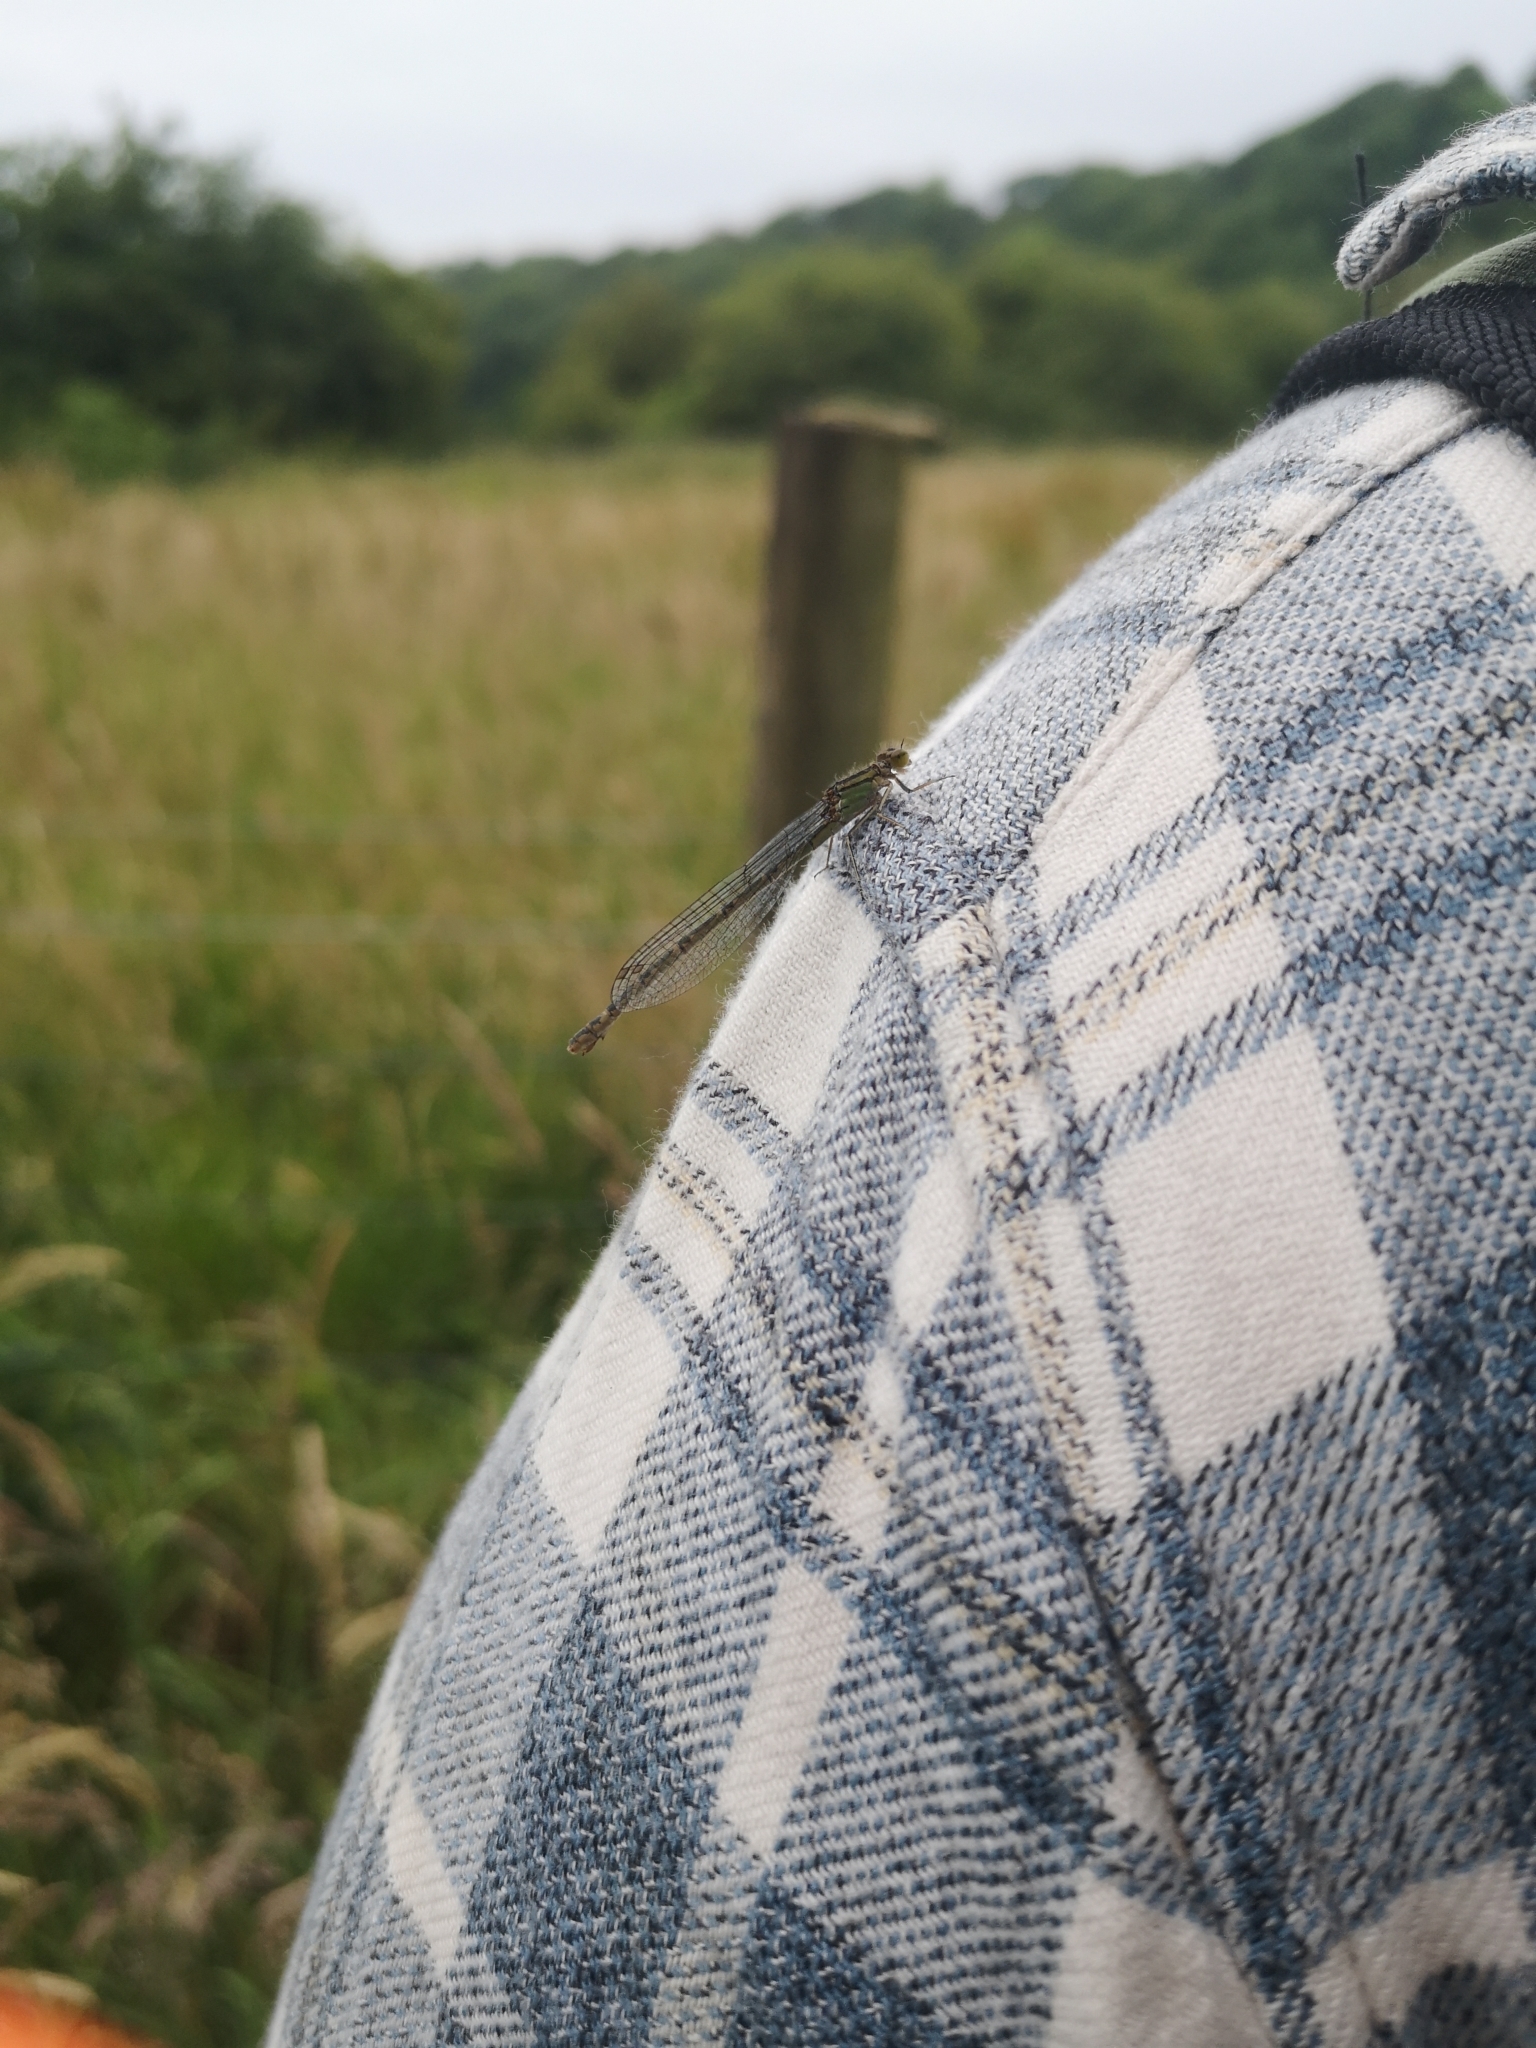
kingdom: Animalia
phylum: Arthropoda
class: Insecta
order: Odonata
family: Coenagrionidae
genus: Enallagma
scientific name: Enallagma cyathigerum
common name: Common blue damselfly
